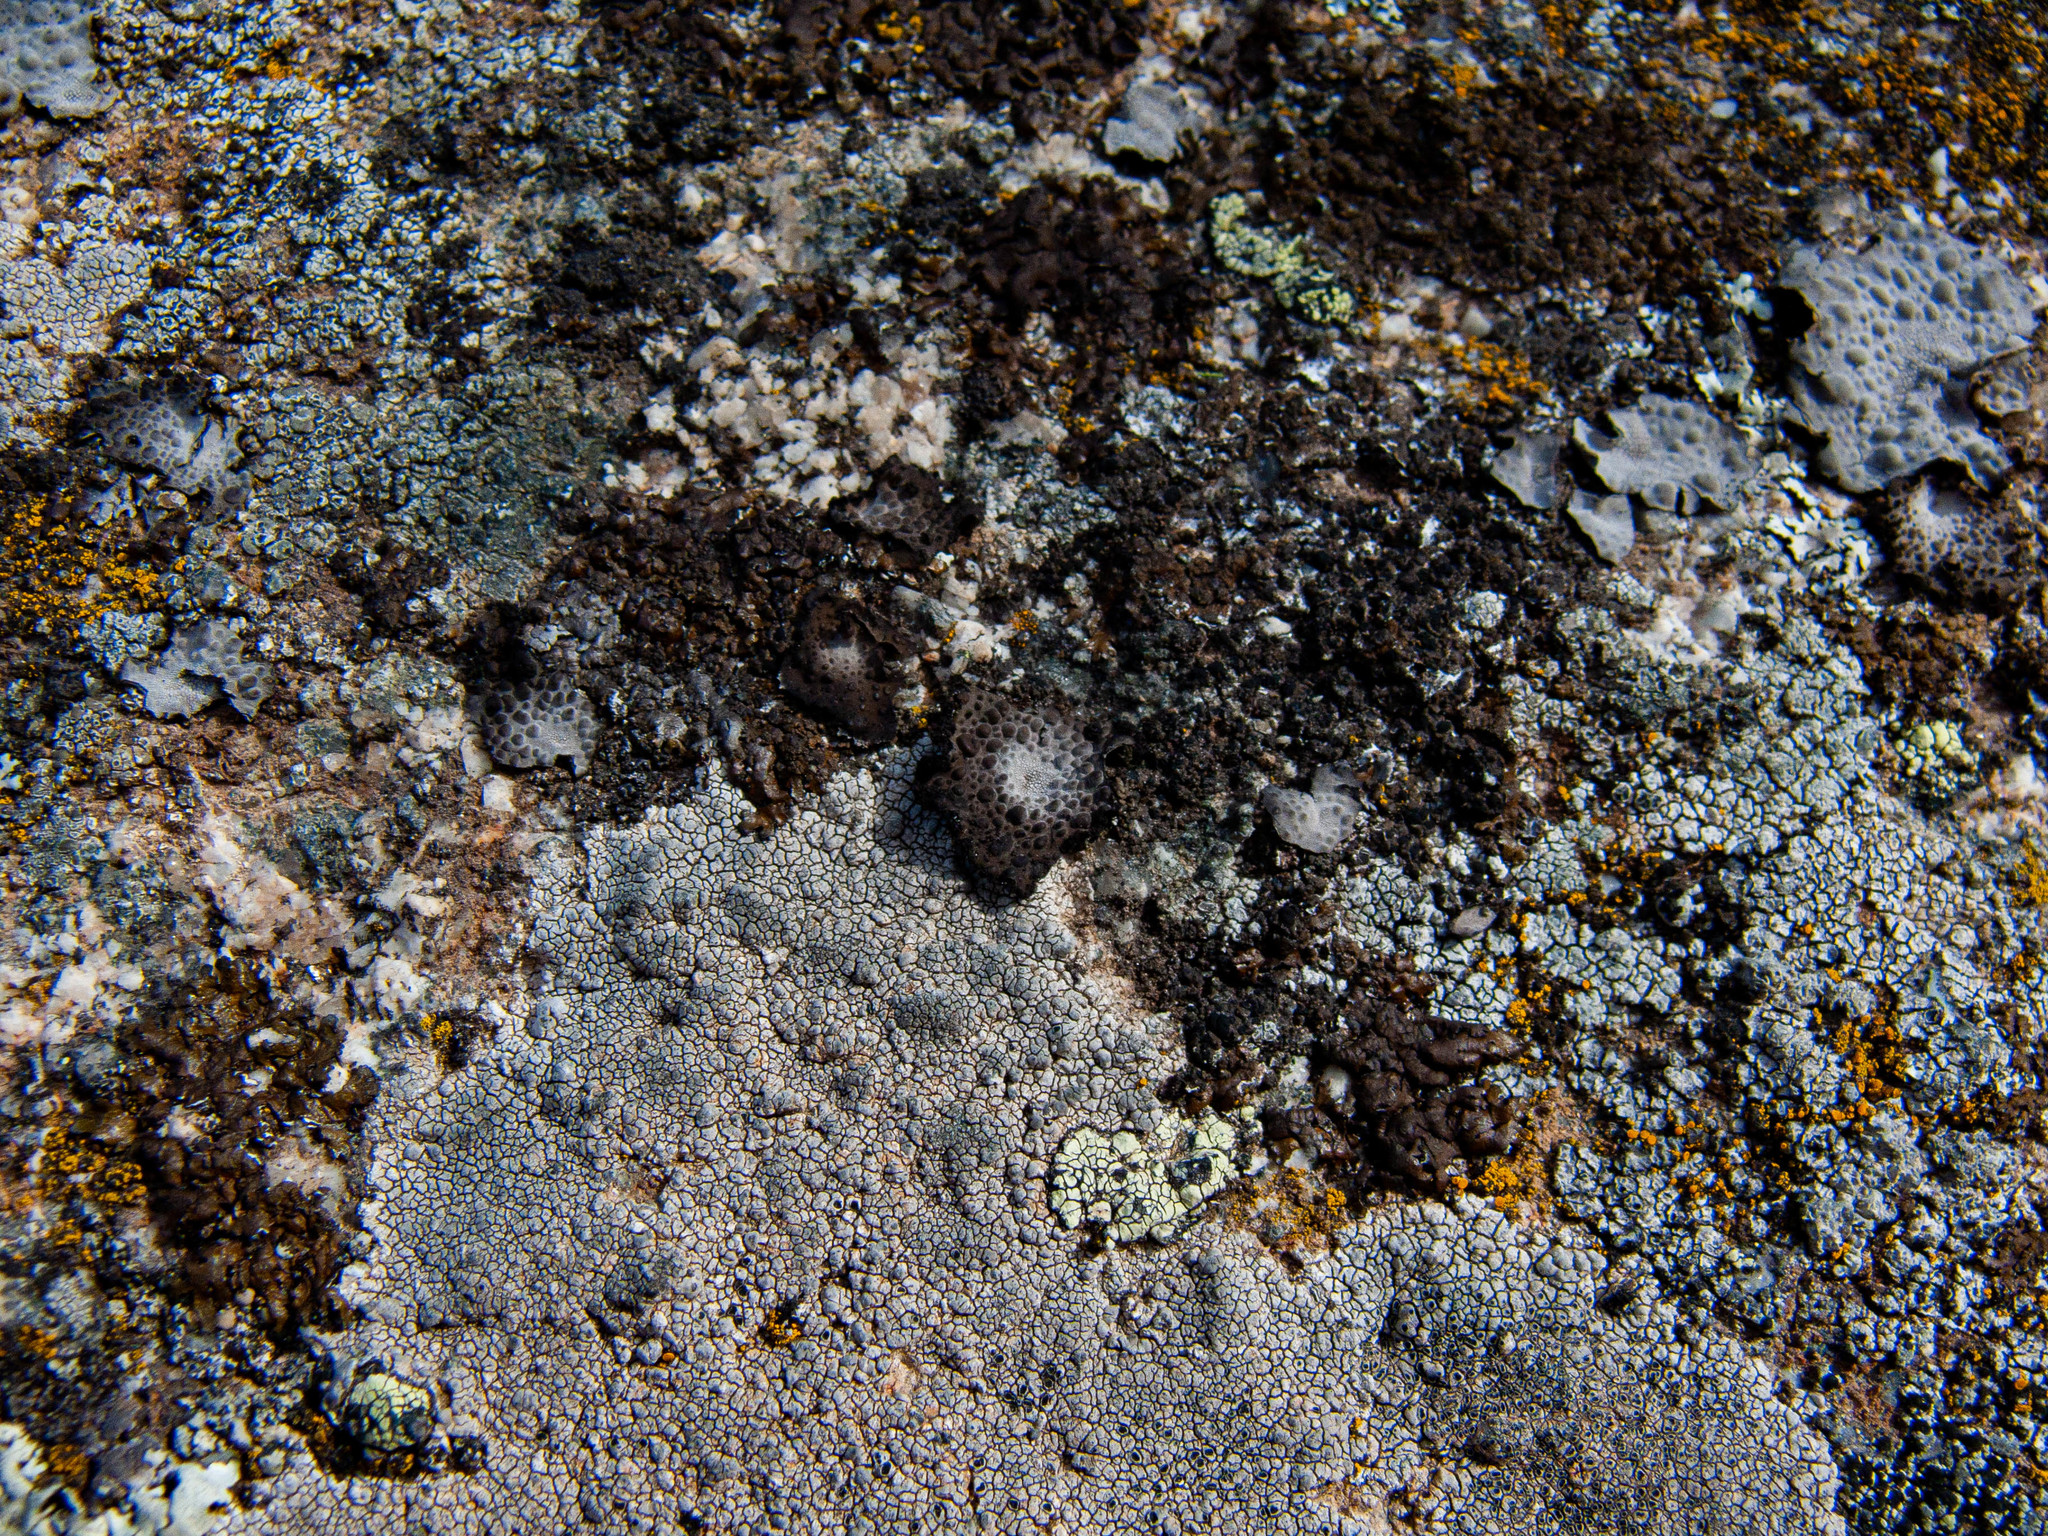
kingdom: Fungi
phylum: Ascomycota
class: Lecanoromycetes
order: Umbilicariales
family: Umbilicariaceae
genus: Lasallia
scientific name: Lasallia pustulata
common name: Blistered toadskin lichen
